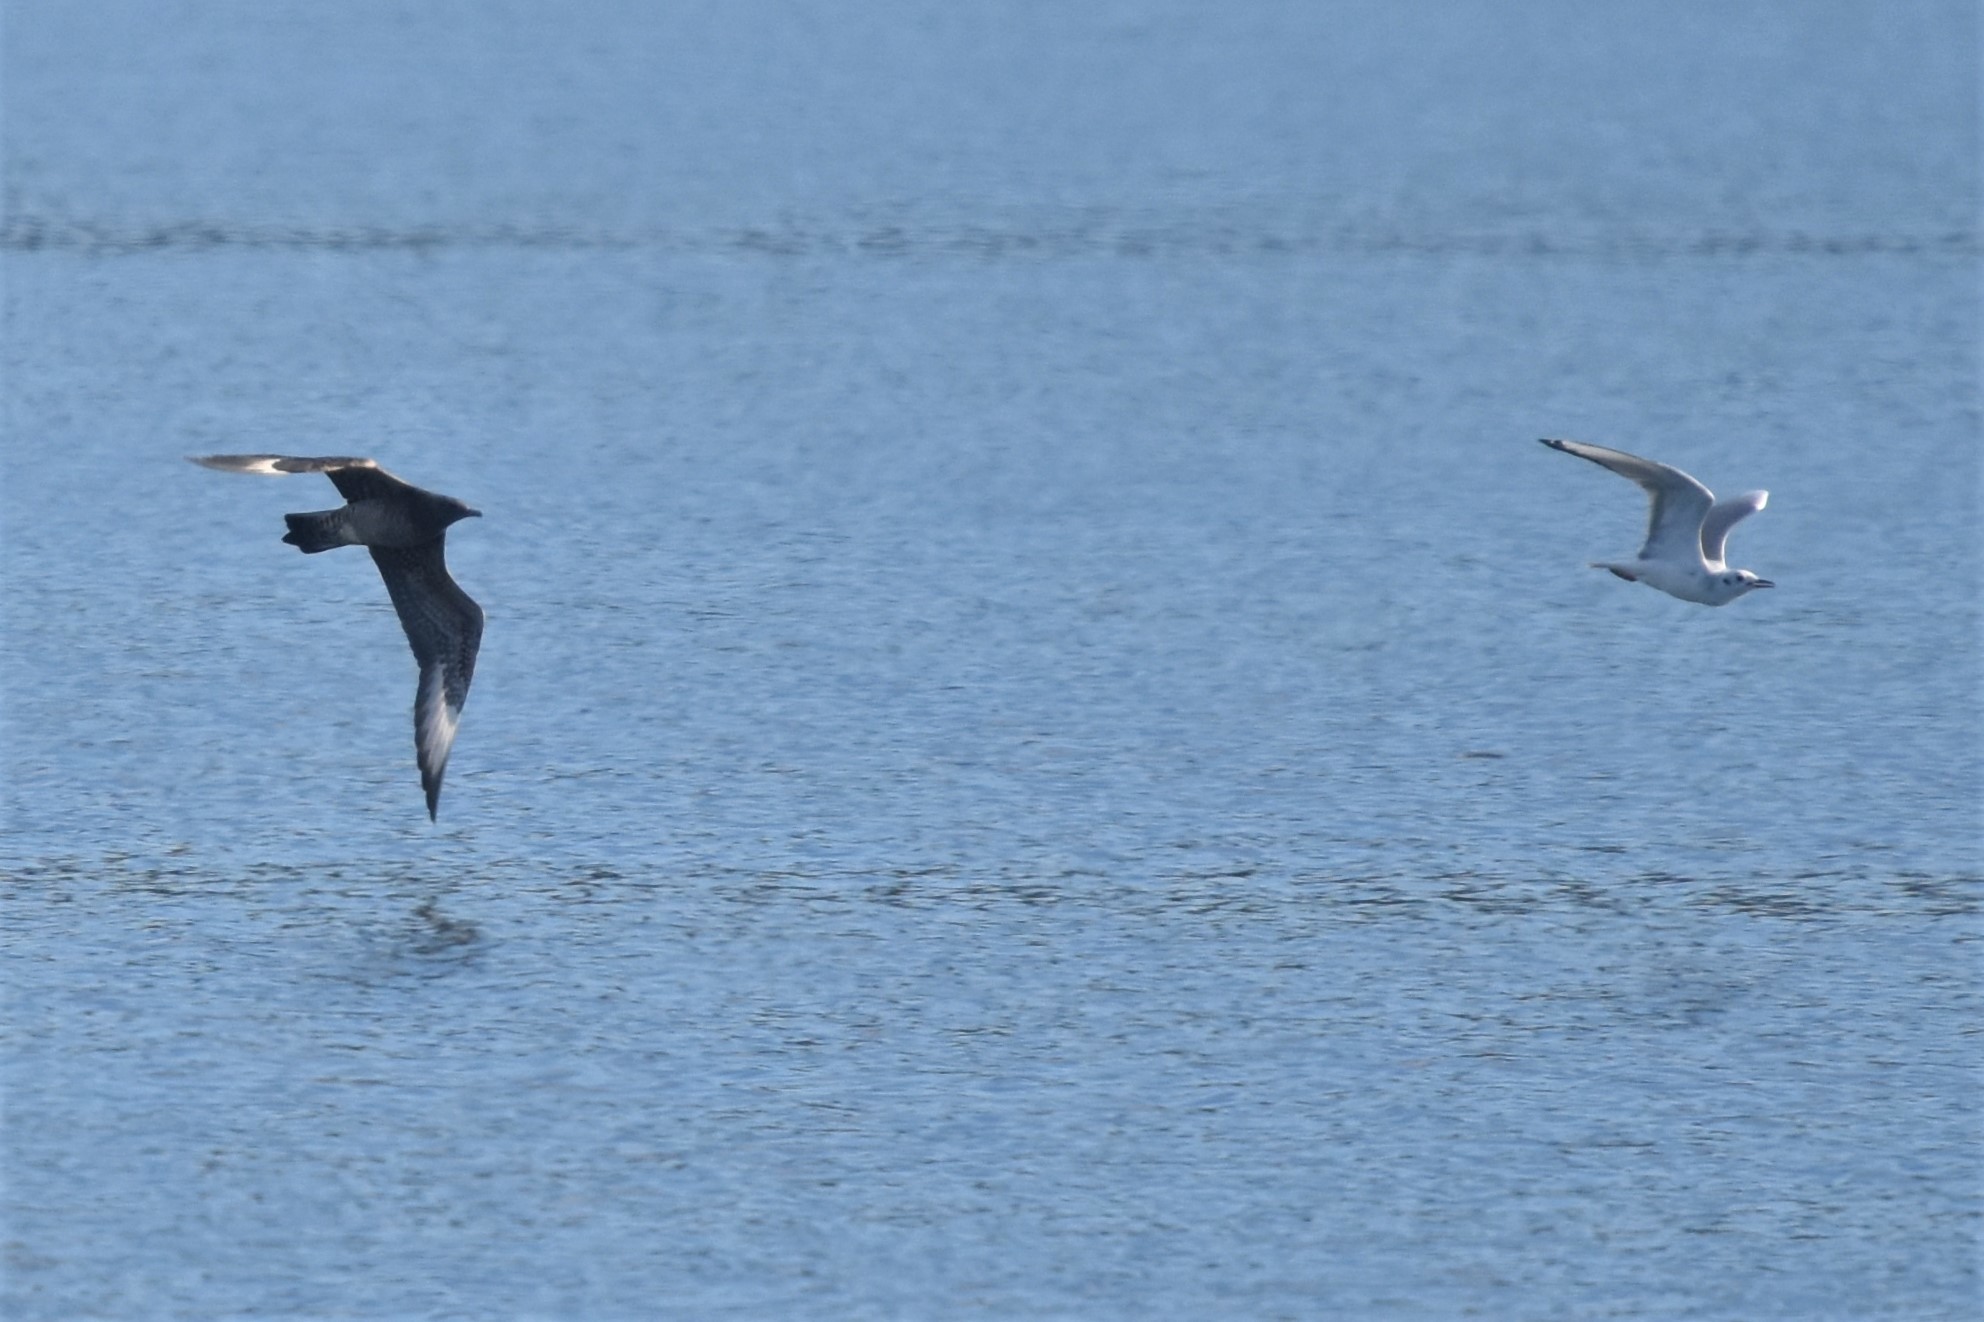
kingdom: Animalia
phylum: Chordata
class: Aves
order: Charadriiformes
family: Stercorariidae
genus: Stercorarius
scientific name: Stercorarius parasiticus
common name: Parasitic jaeger
